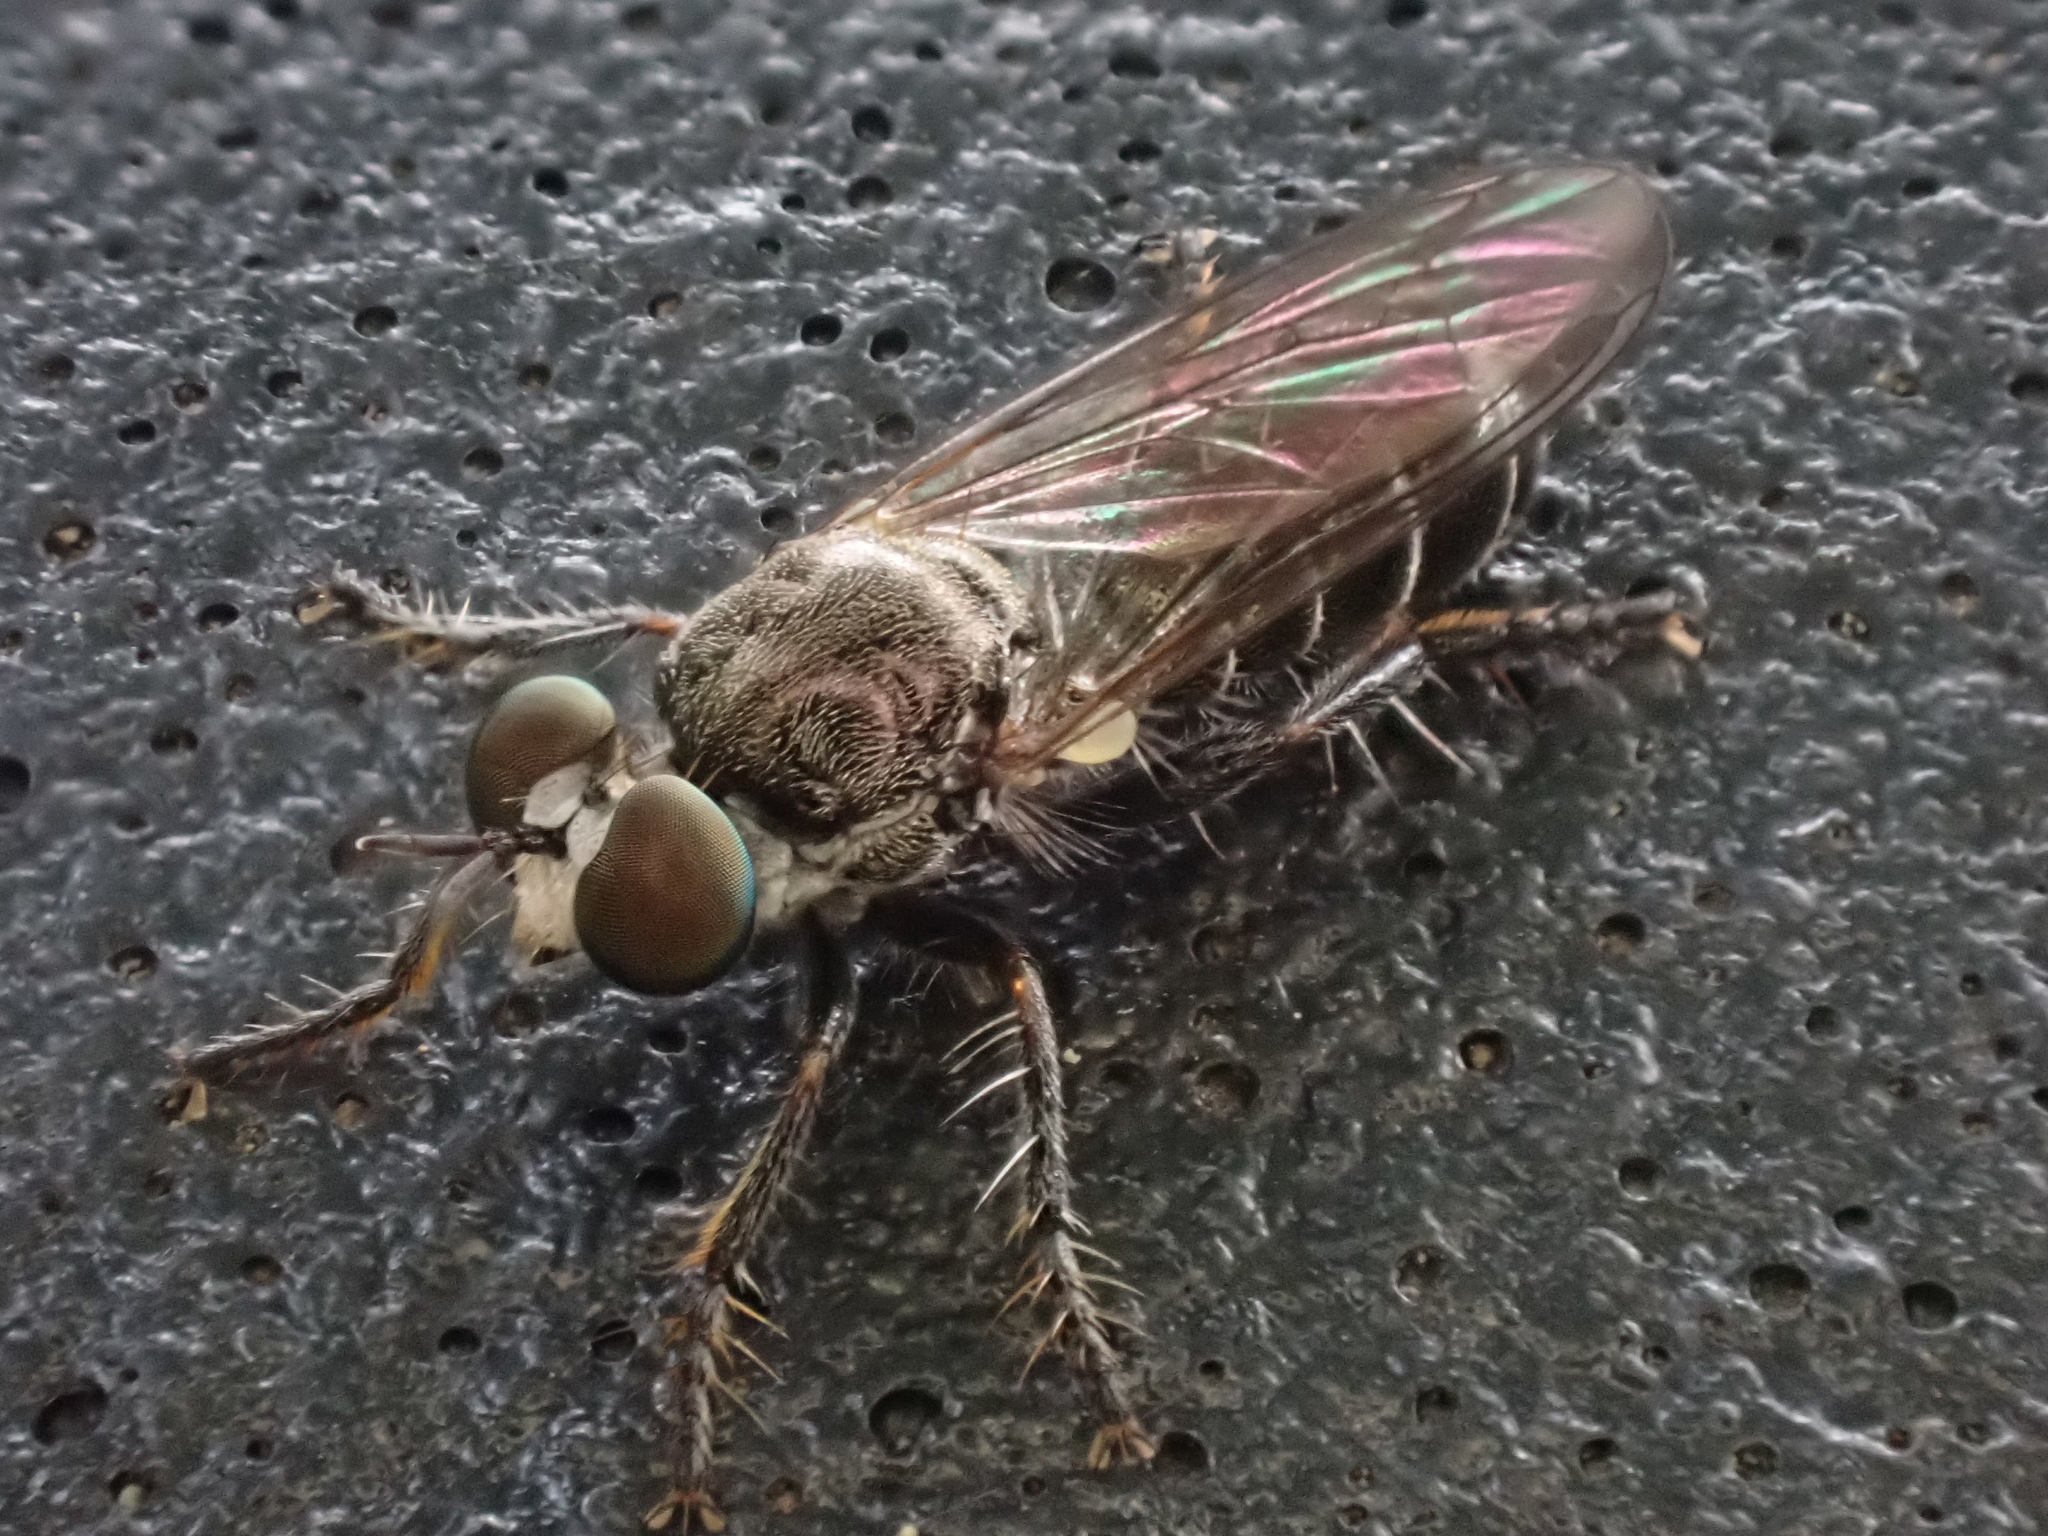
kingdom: Animalia
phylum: Arthropoda
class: Insecta
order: Diptera
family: Asilidae
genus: Atomosia
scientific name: Atomosia puella
